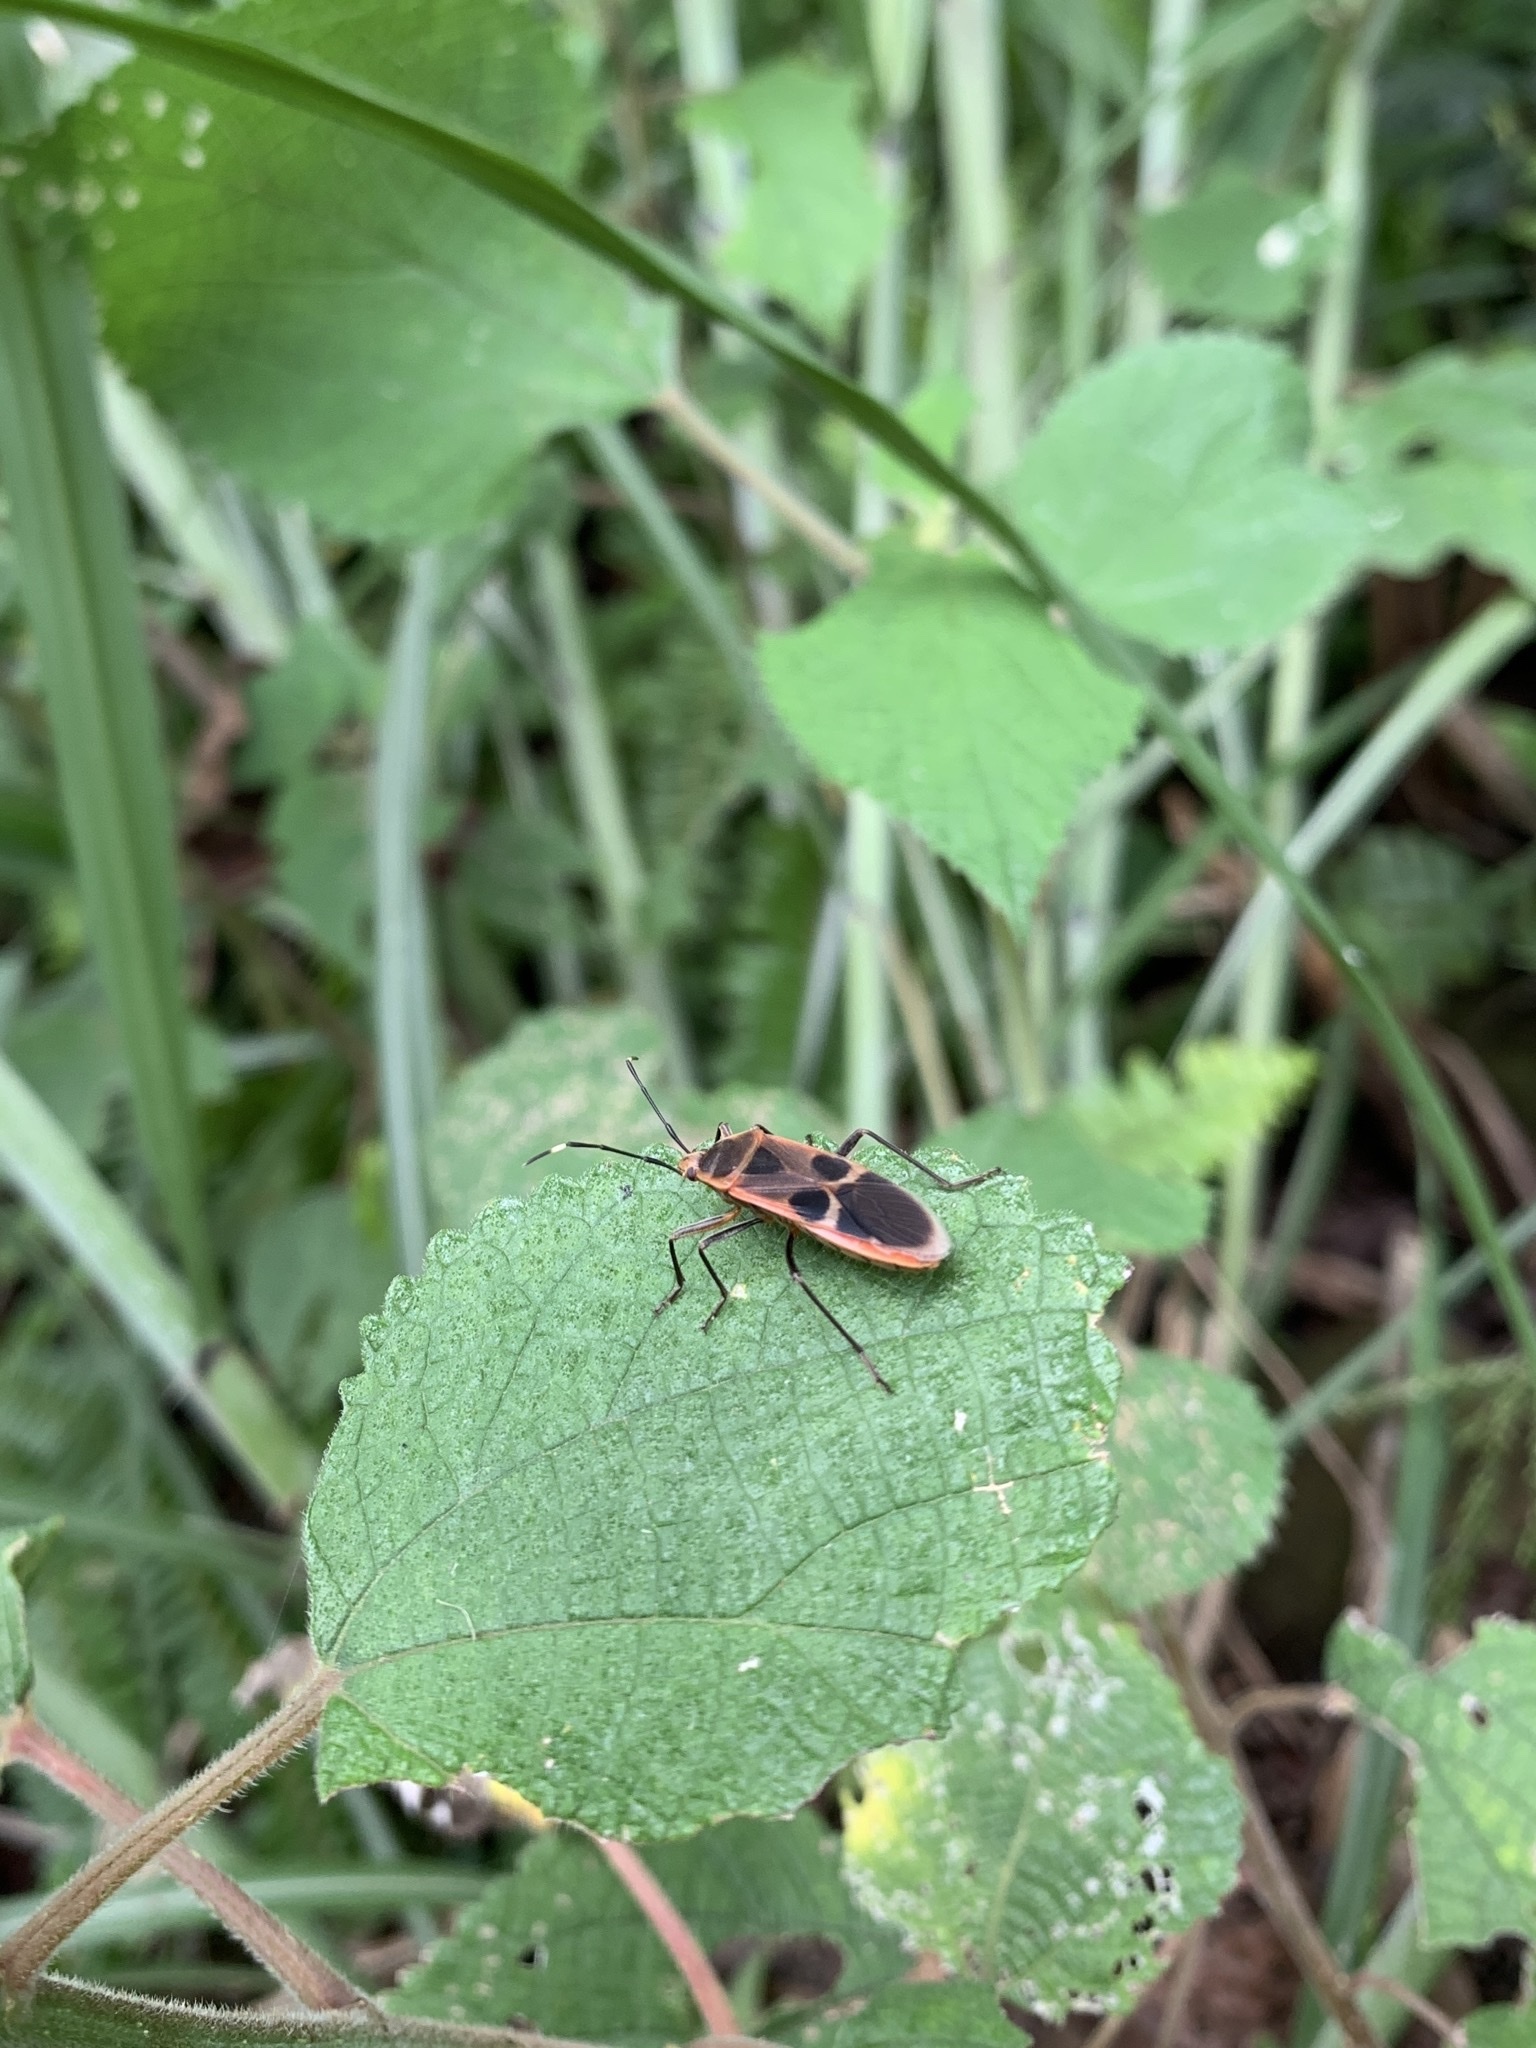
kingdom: Animalia
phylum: Arthropoda
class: Insecta
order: Hemiptera
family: Largidae
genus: Physopelta
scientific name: Physopelta gutta
